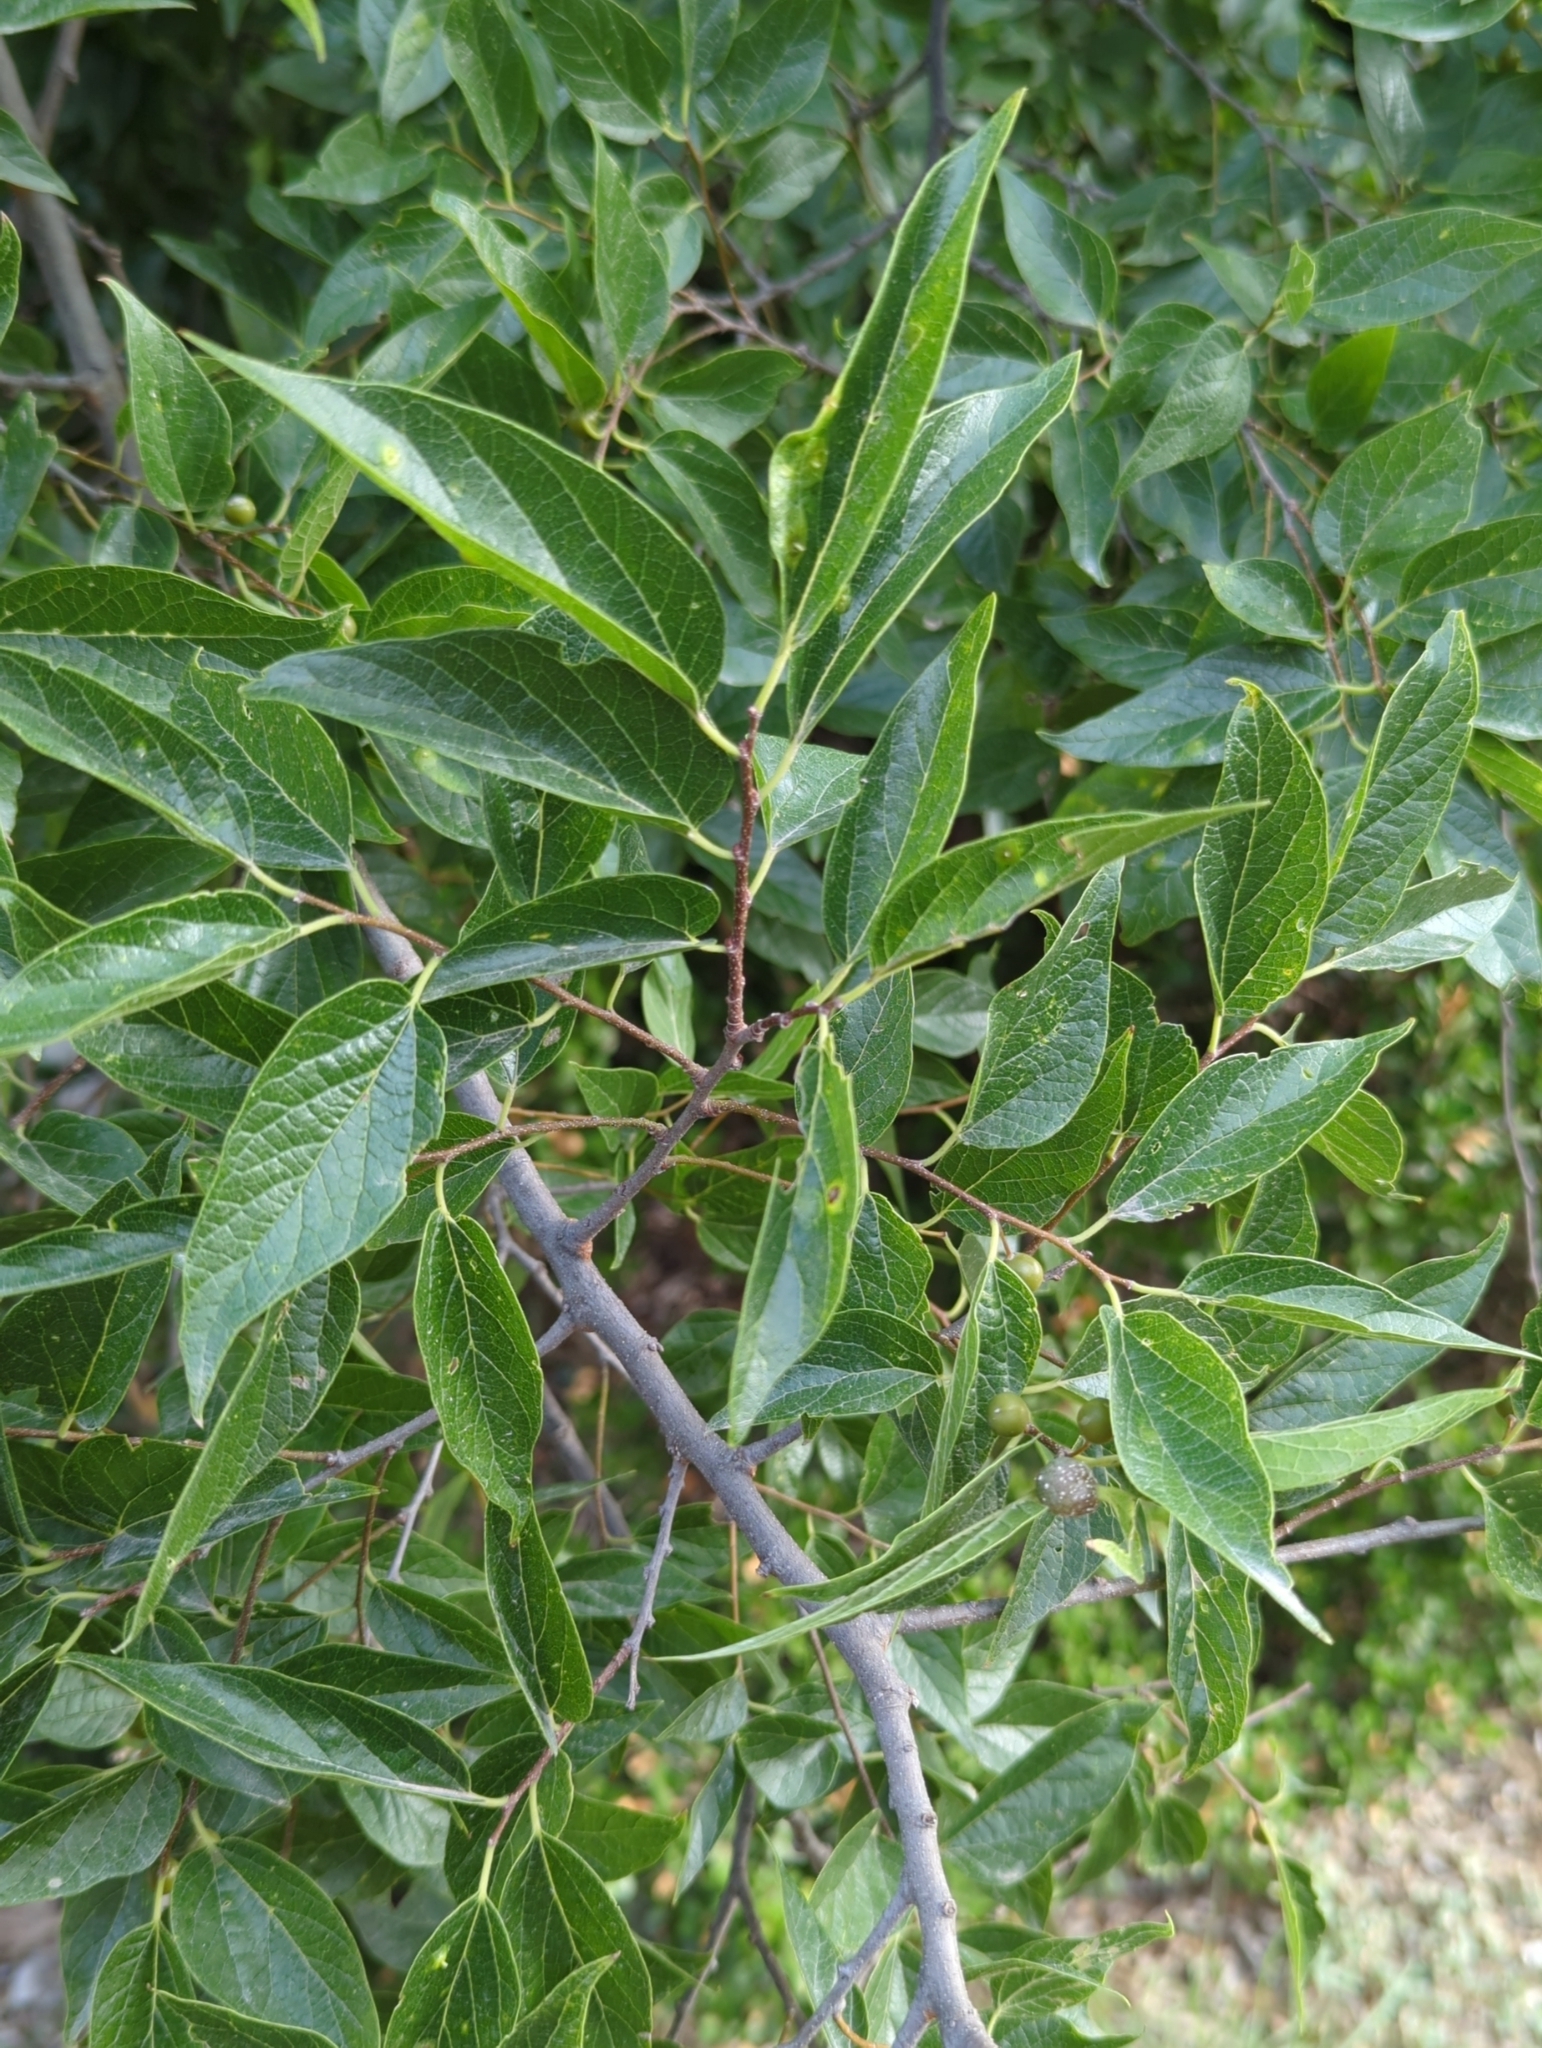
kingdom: Plantae
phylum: Tracheophyta
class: Magnoliopsida
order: Rosales
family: Cannabaceae
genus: Celtis
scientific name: Celtis laevigata
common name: Sugarberry
